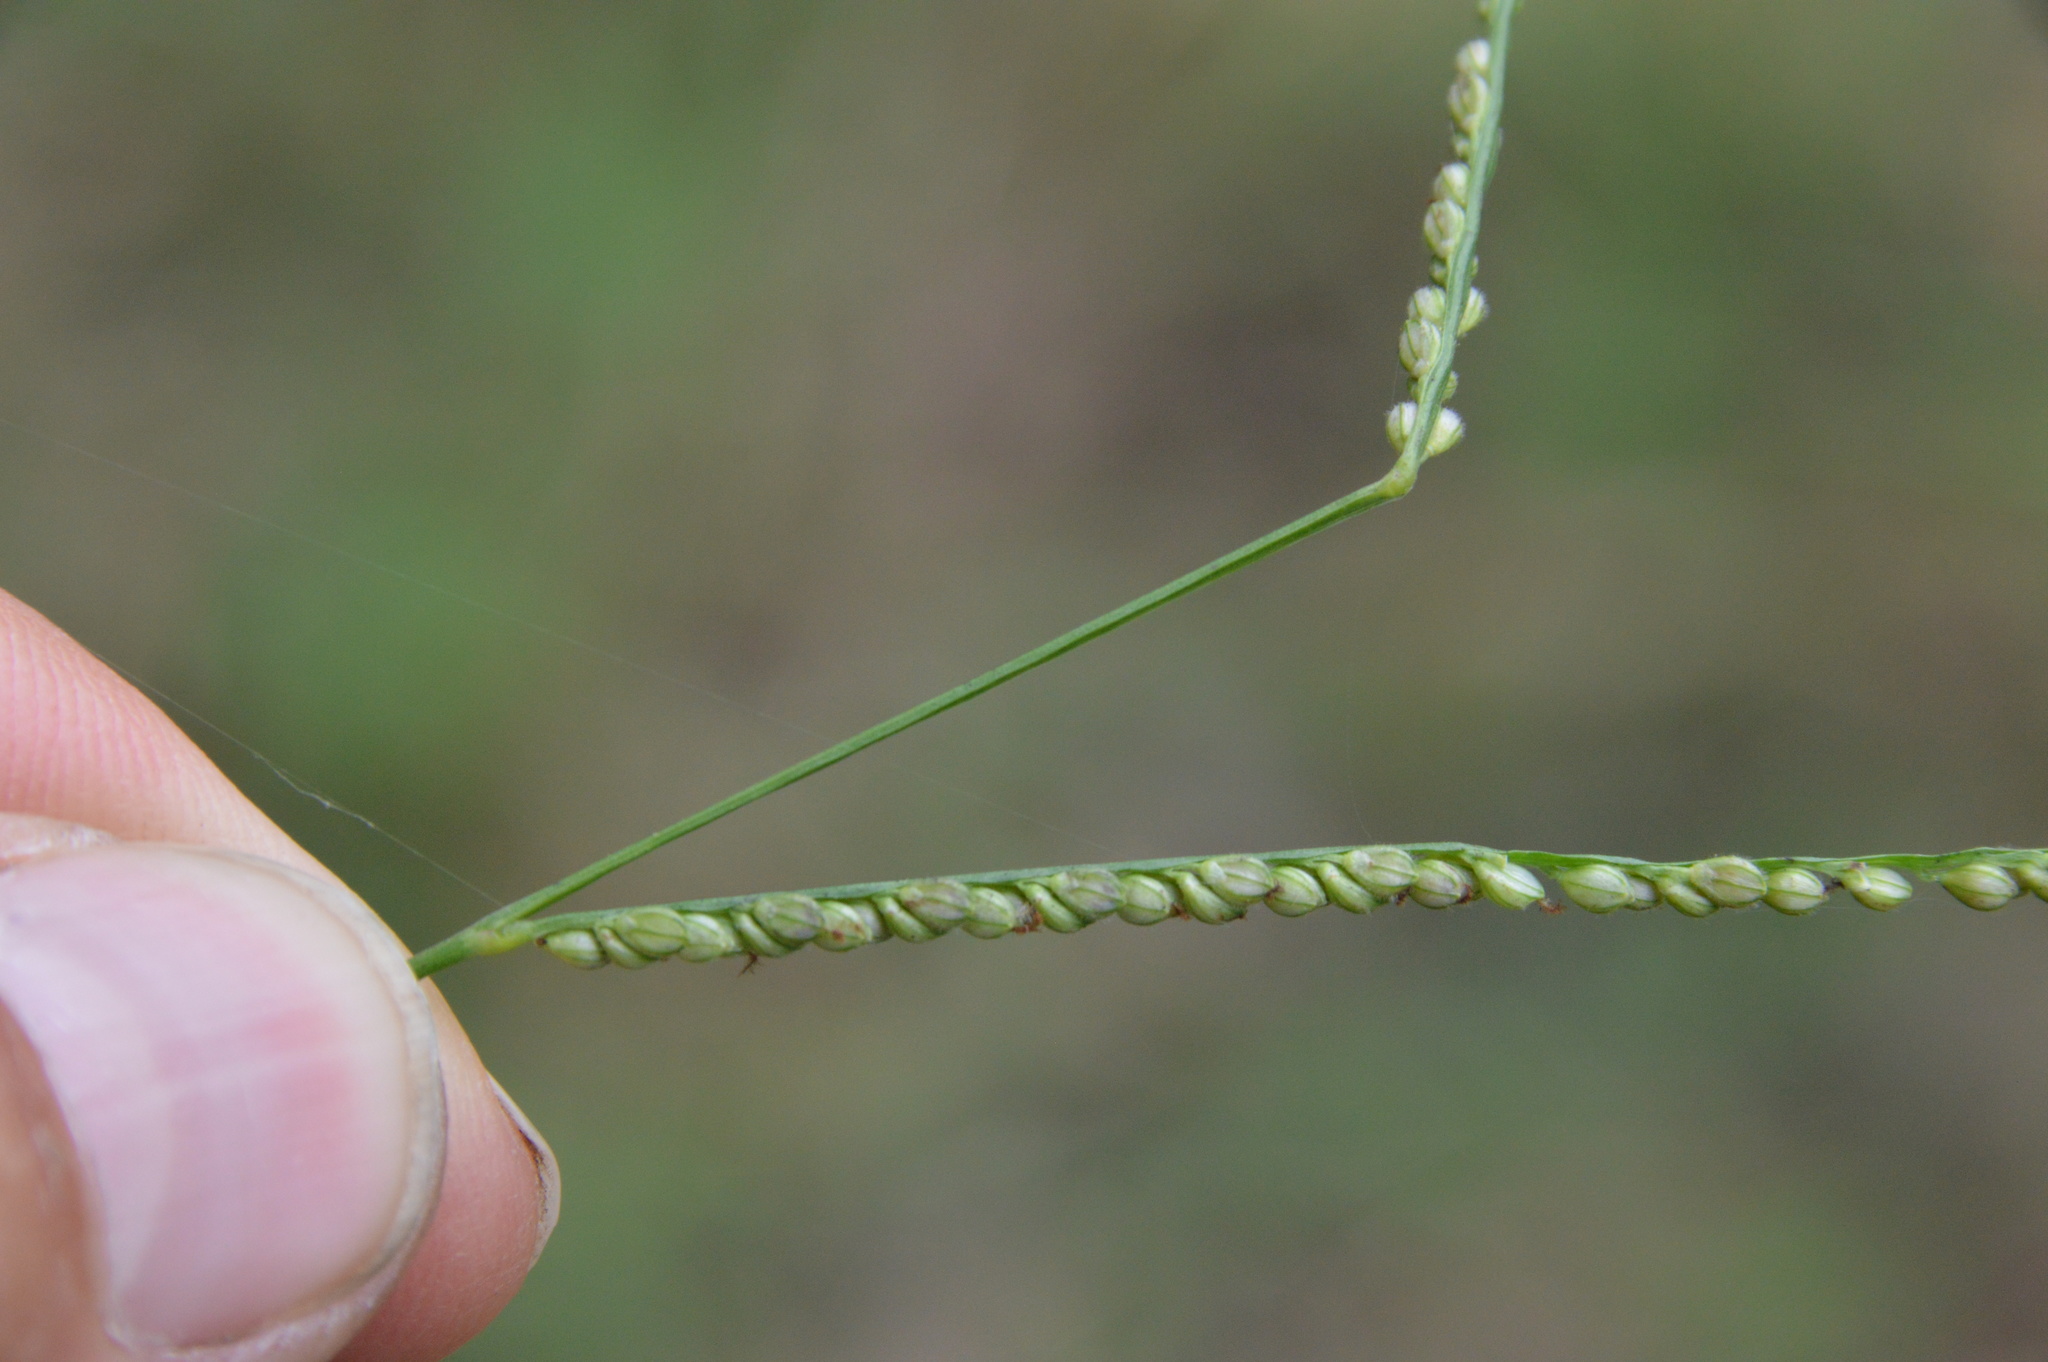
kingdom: Plantae
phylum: Tracheophyta
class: Liliopsida
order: Poales
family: Poaceae
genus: Paspalum
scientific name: Paspalum langei
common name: Rusty-seed paspalum
